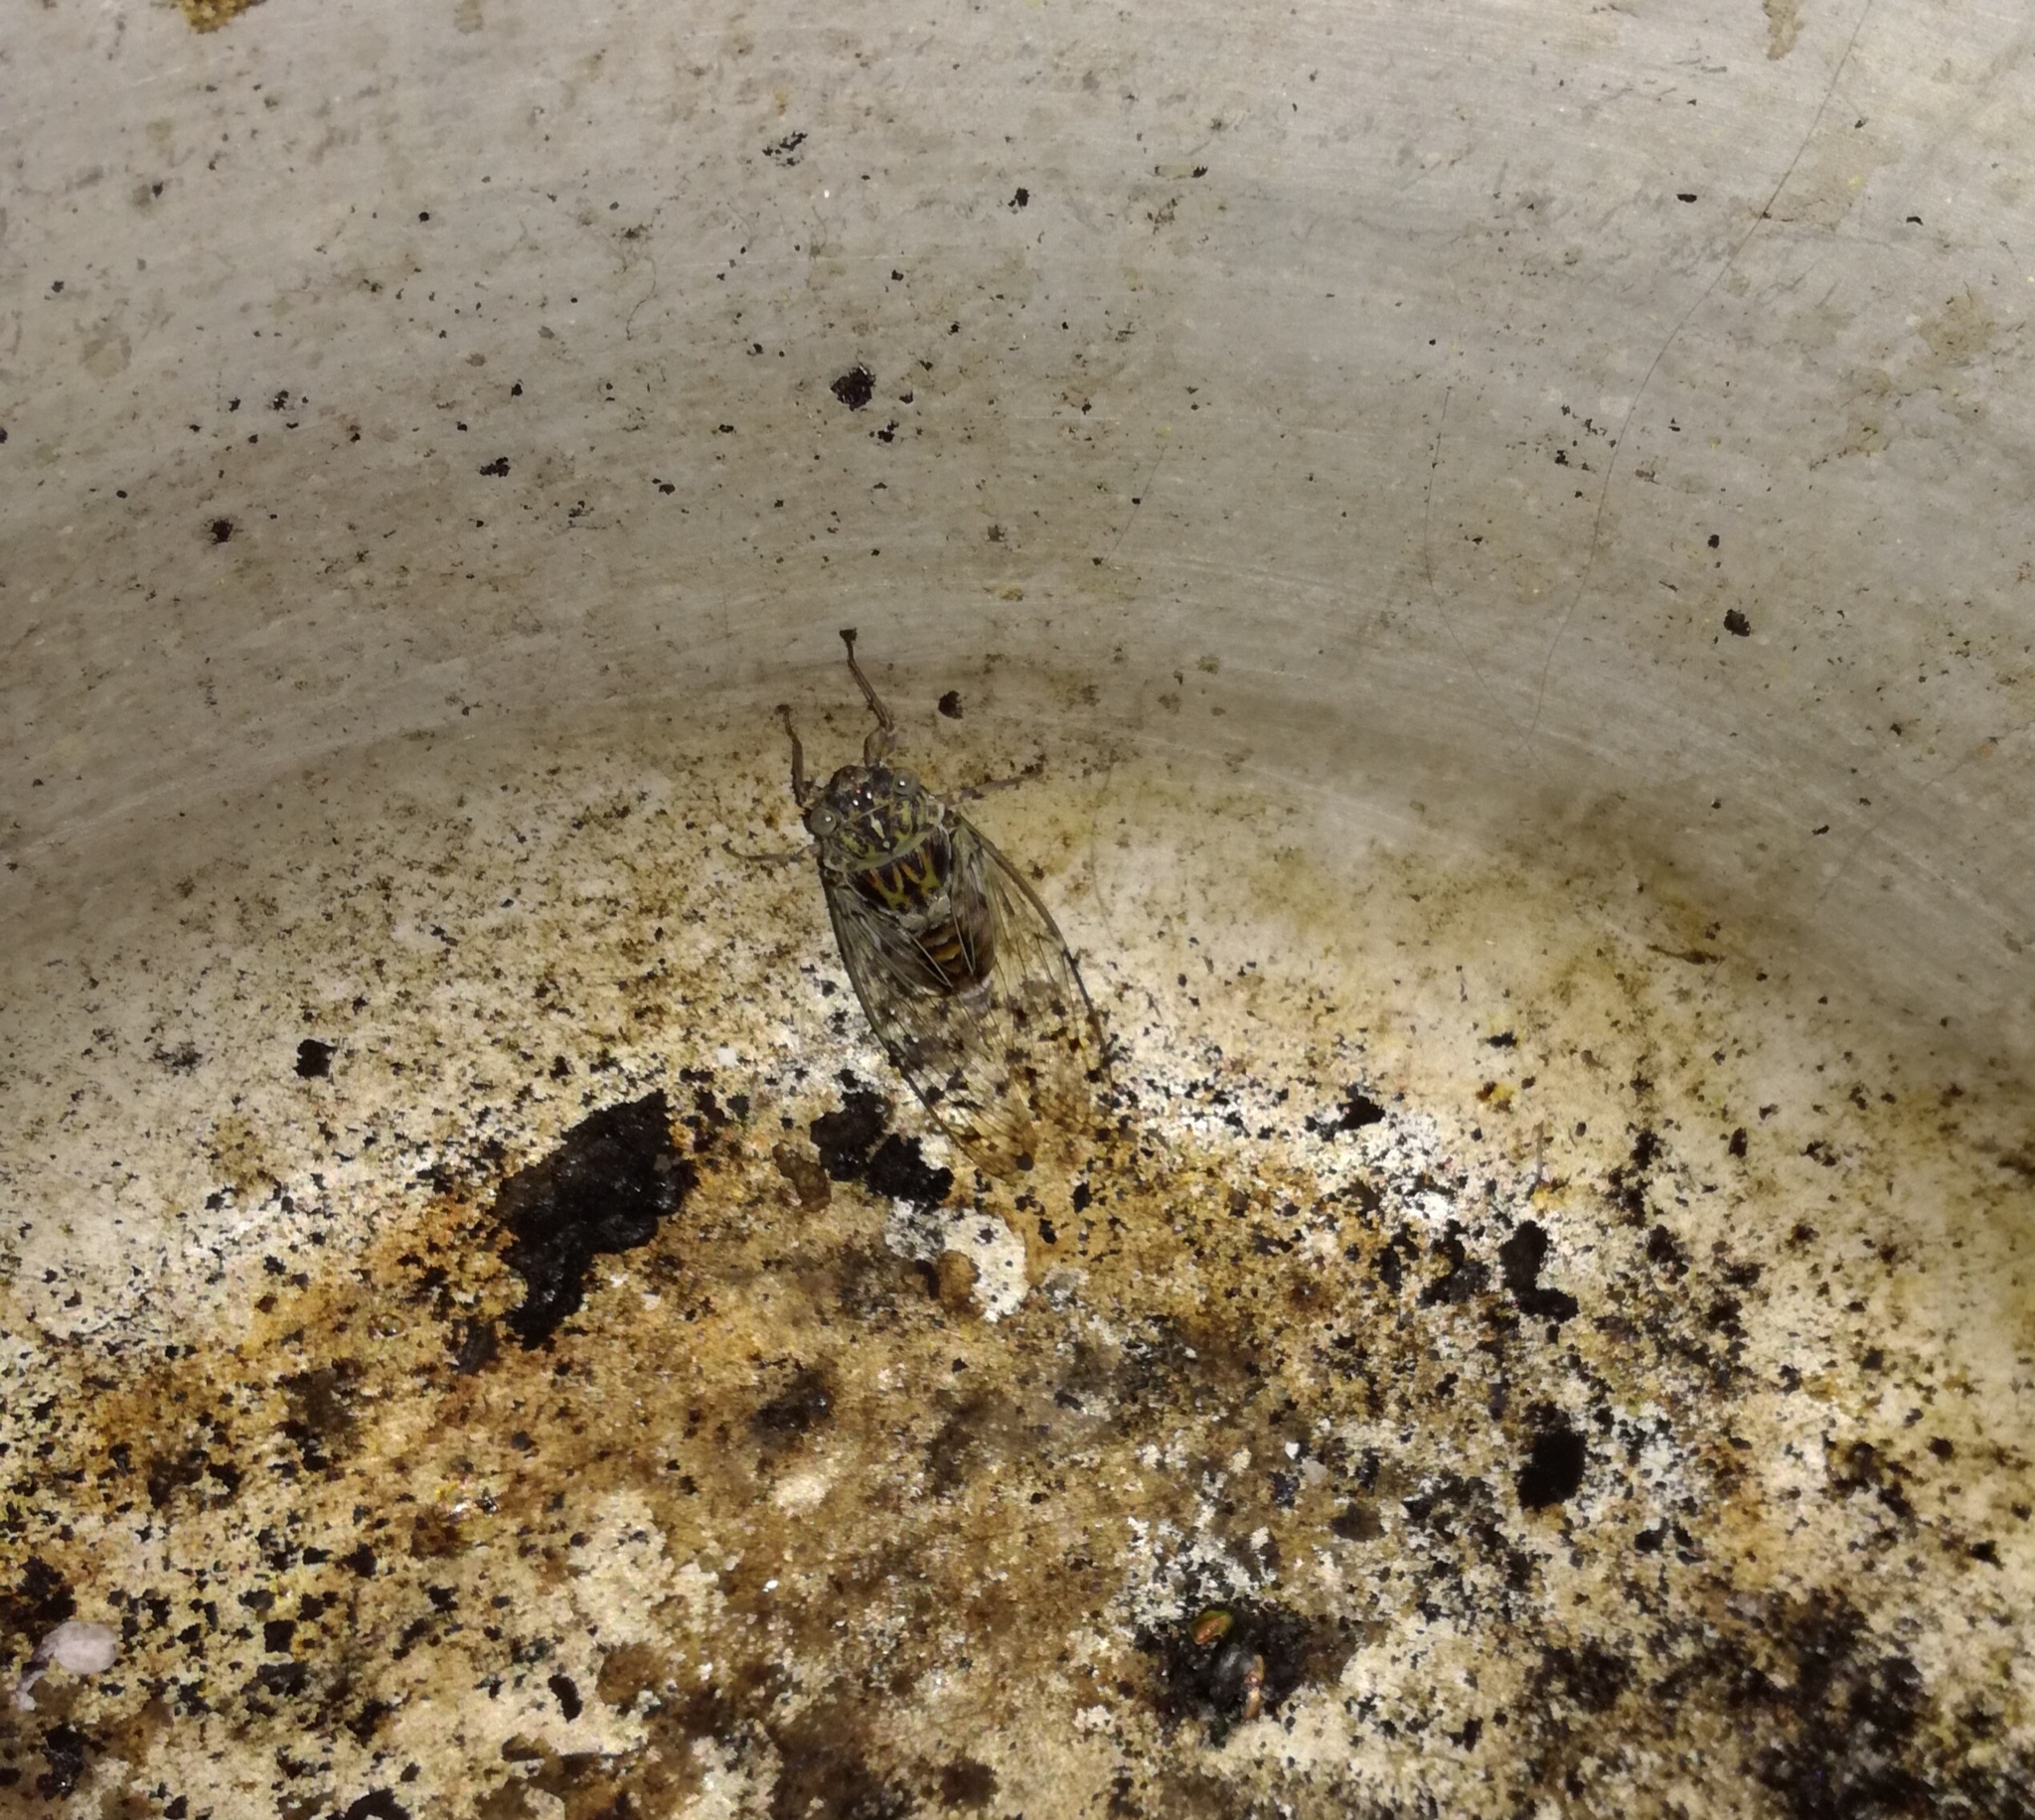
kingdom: Animalia
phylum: Arthropoda
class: Insecta
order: Hemiptera
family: Cicadidae
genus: Cicada
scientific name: Cicada orni
